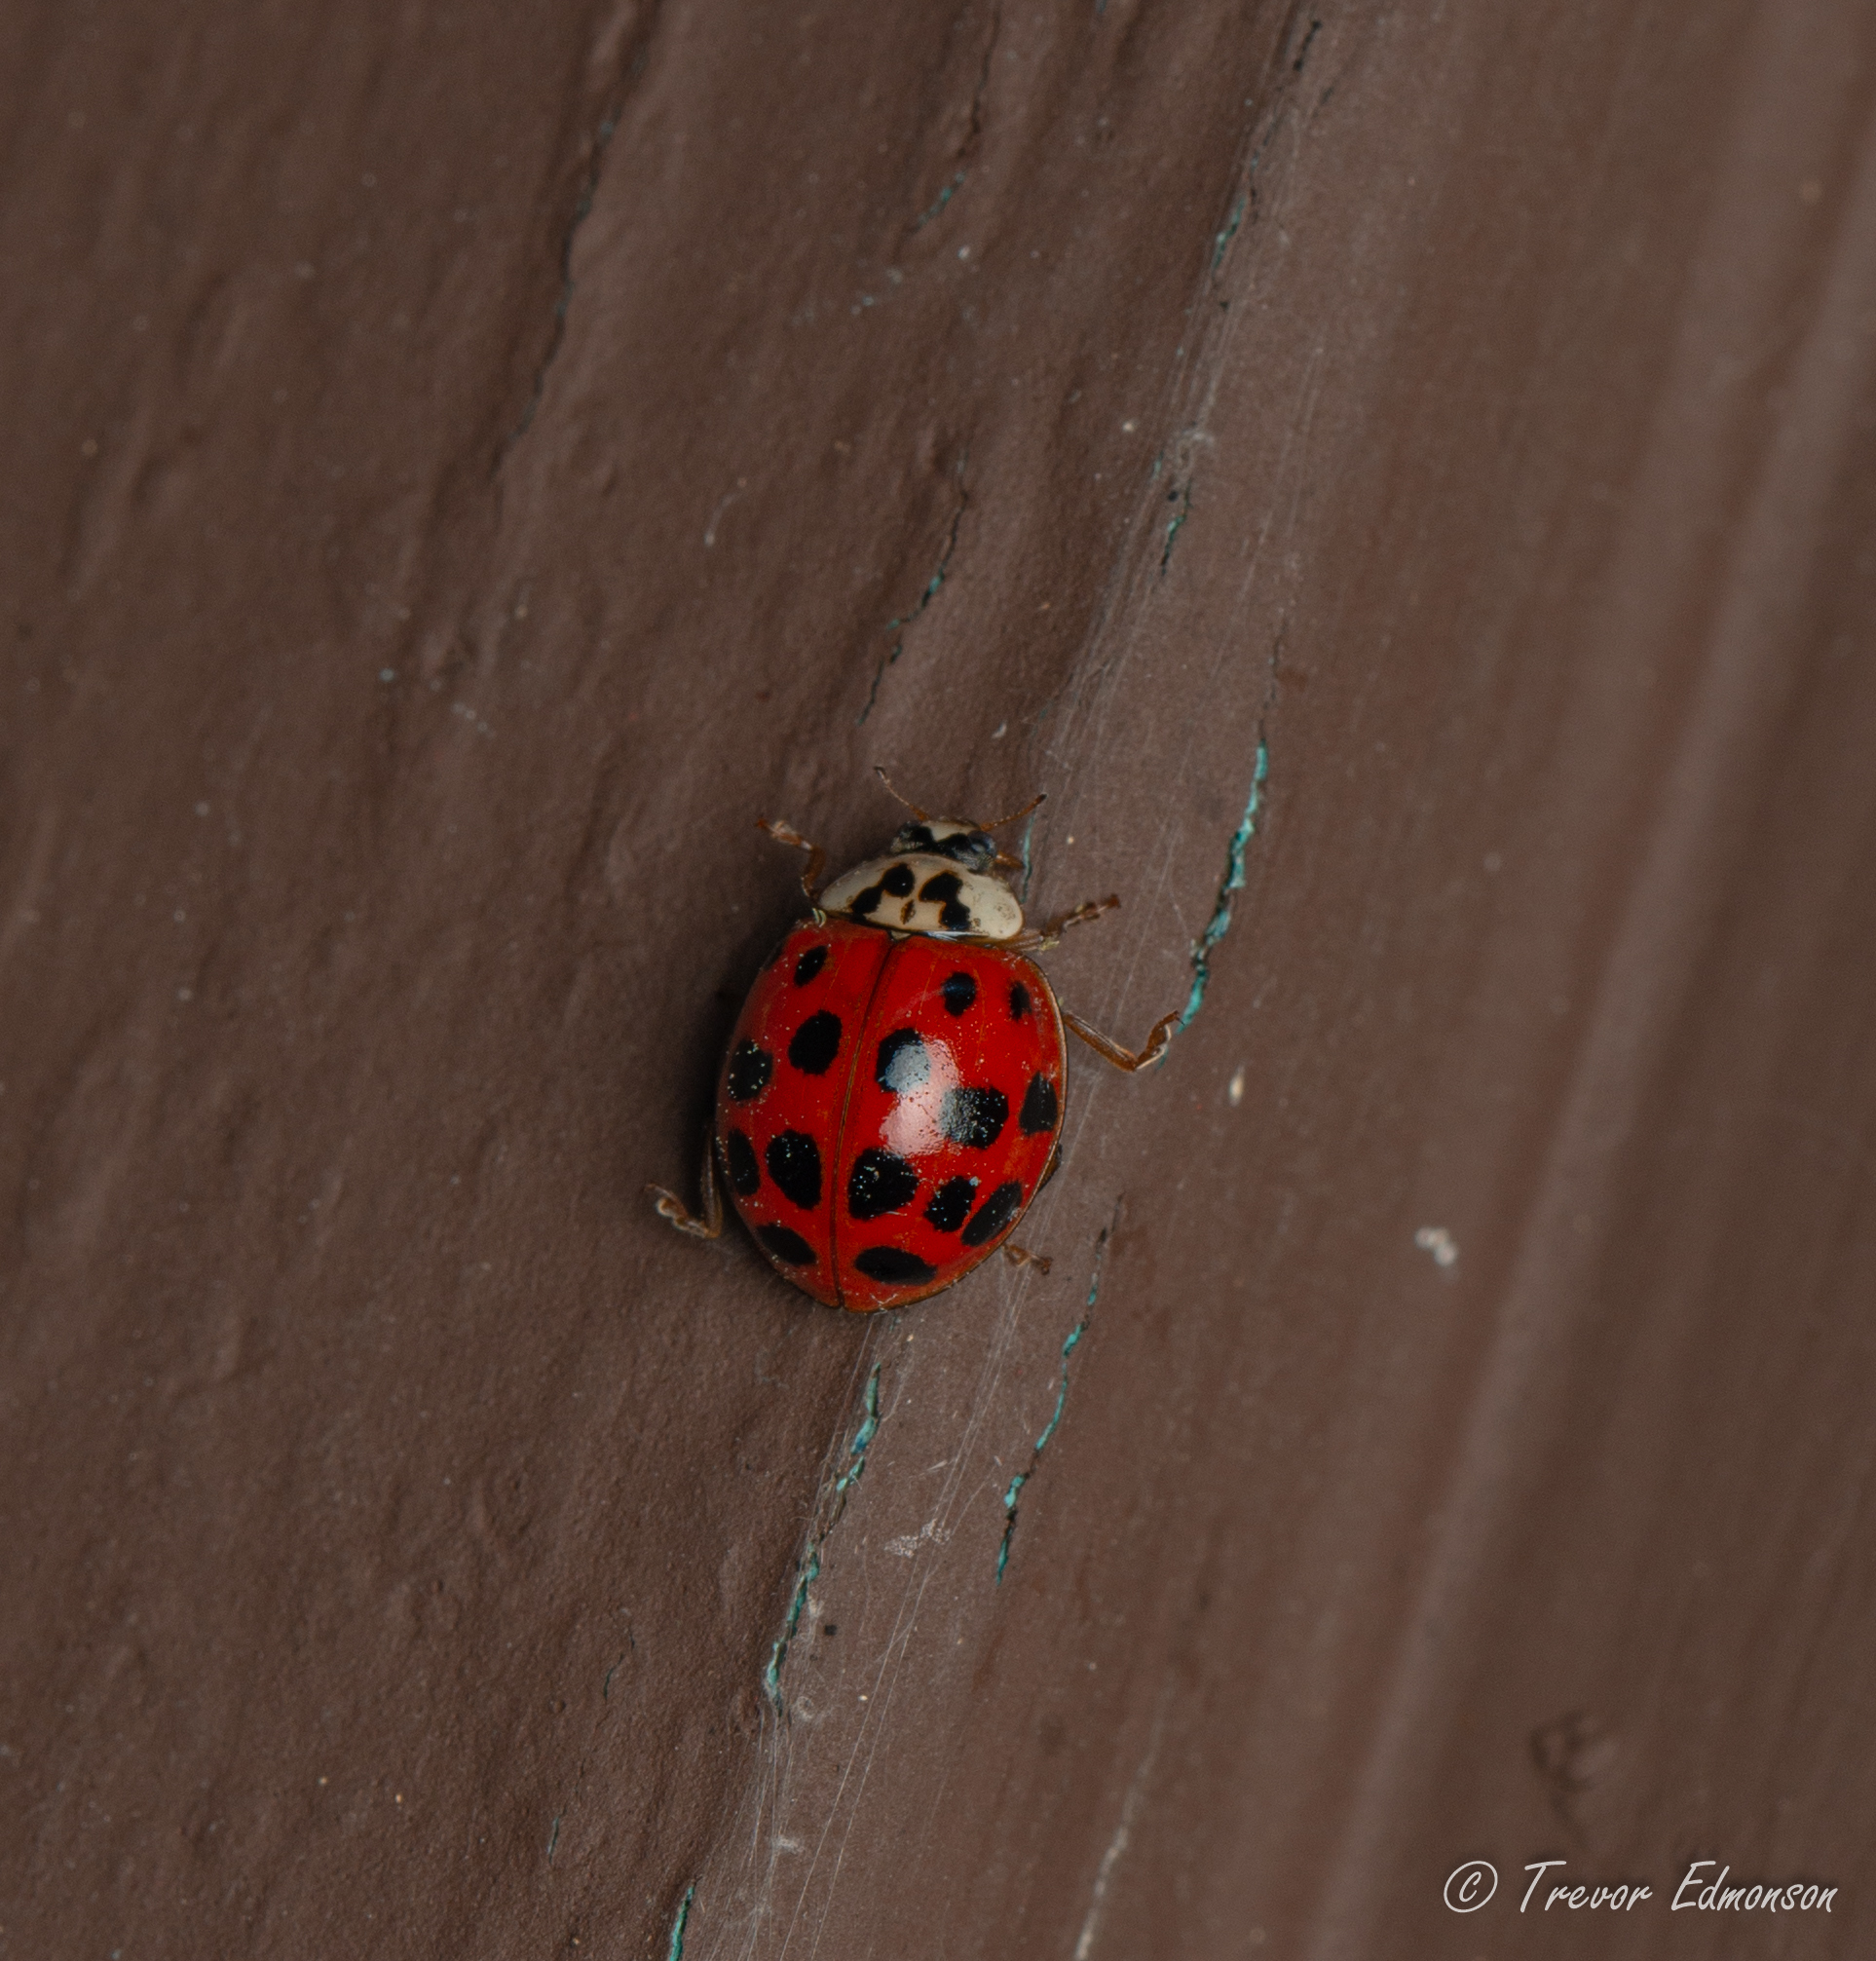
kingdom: Animalia
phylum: Arthropoda
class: Insecta
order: Coleoptera
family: Coccinellidae
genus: Harmonia
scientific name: Harmonia axyridis
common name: Harlequin ladybird
